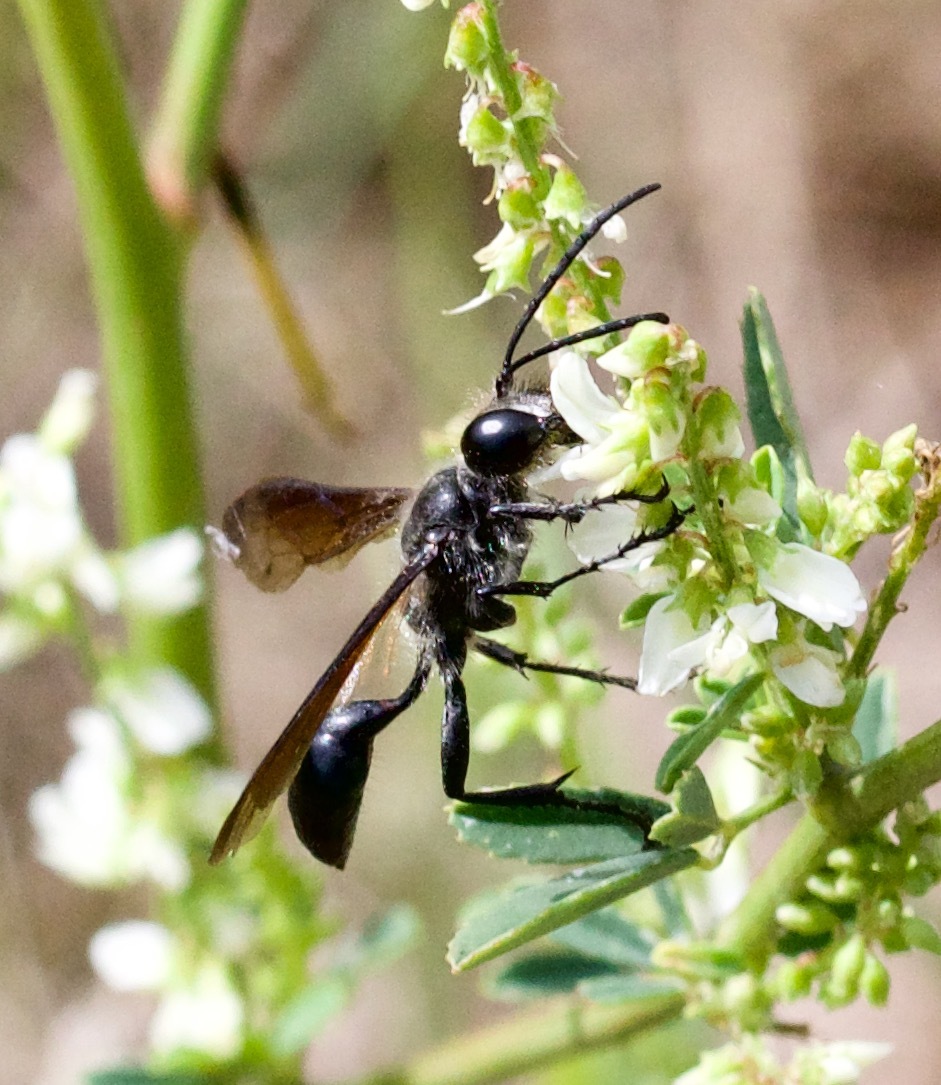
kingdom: Animalia
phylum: Arthropoda
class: Insecta
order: Hymenoptera
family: Sphecidae
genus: Isodontia
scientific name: Isodontia mexicana
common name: Mud dauber
